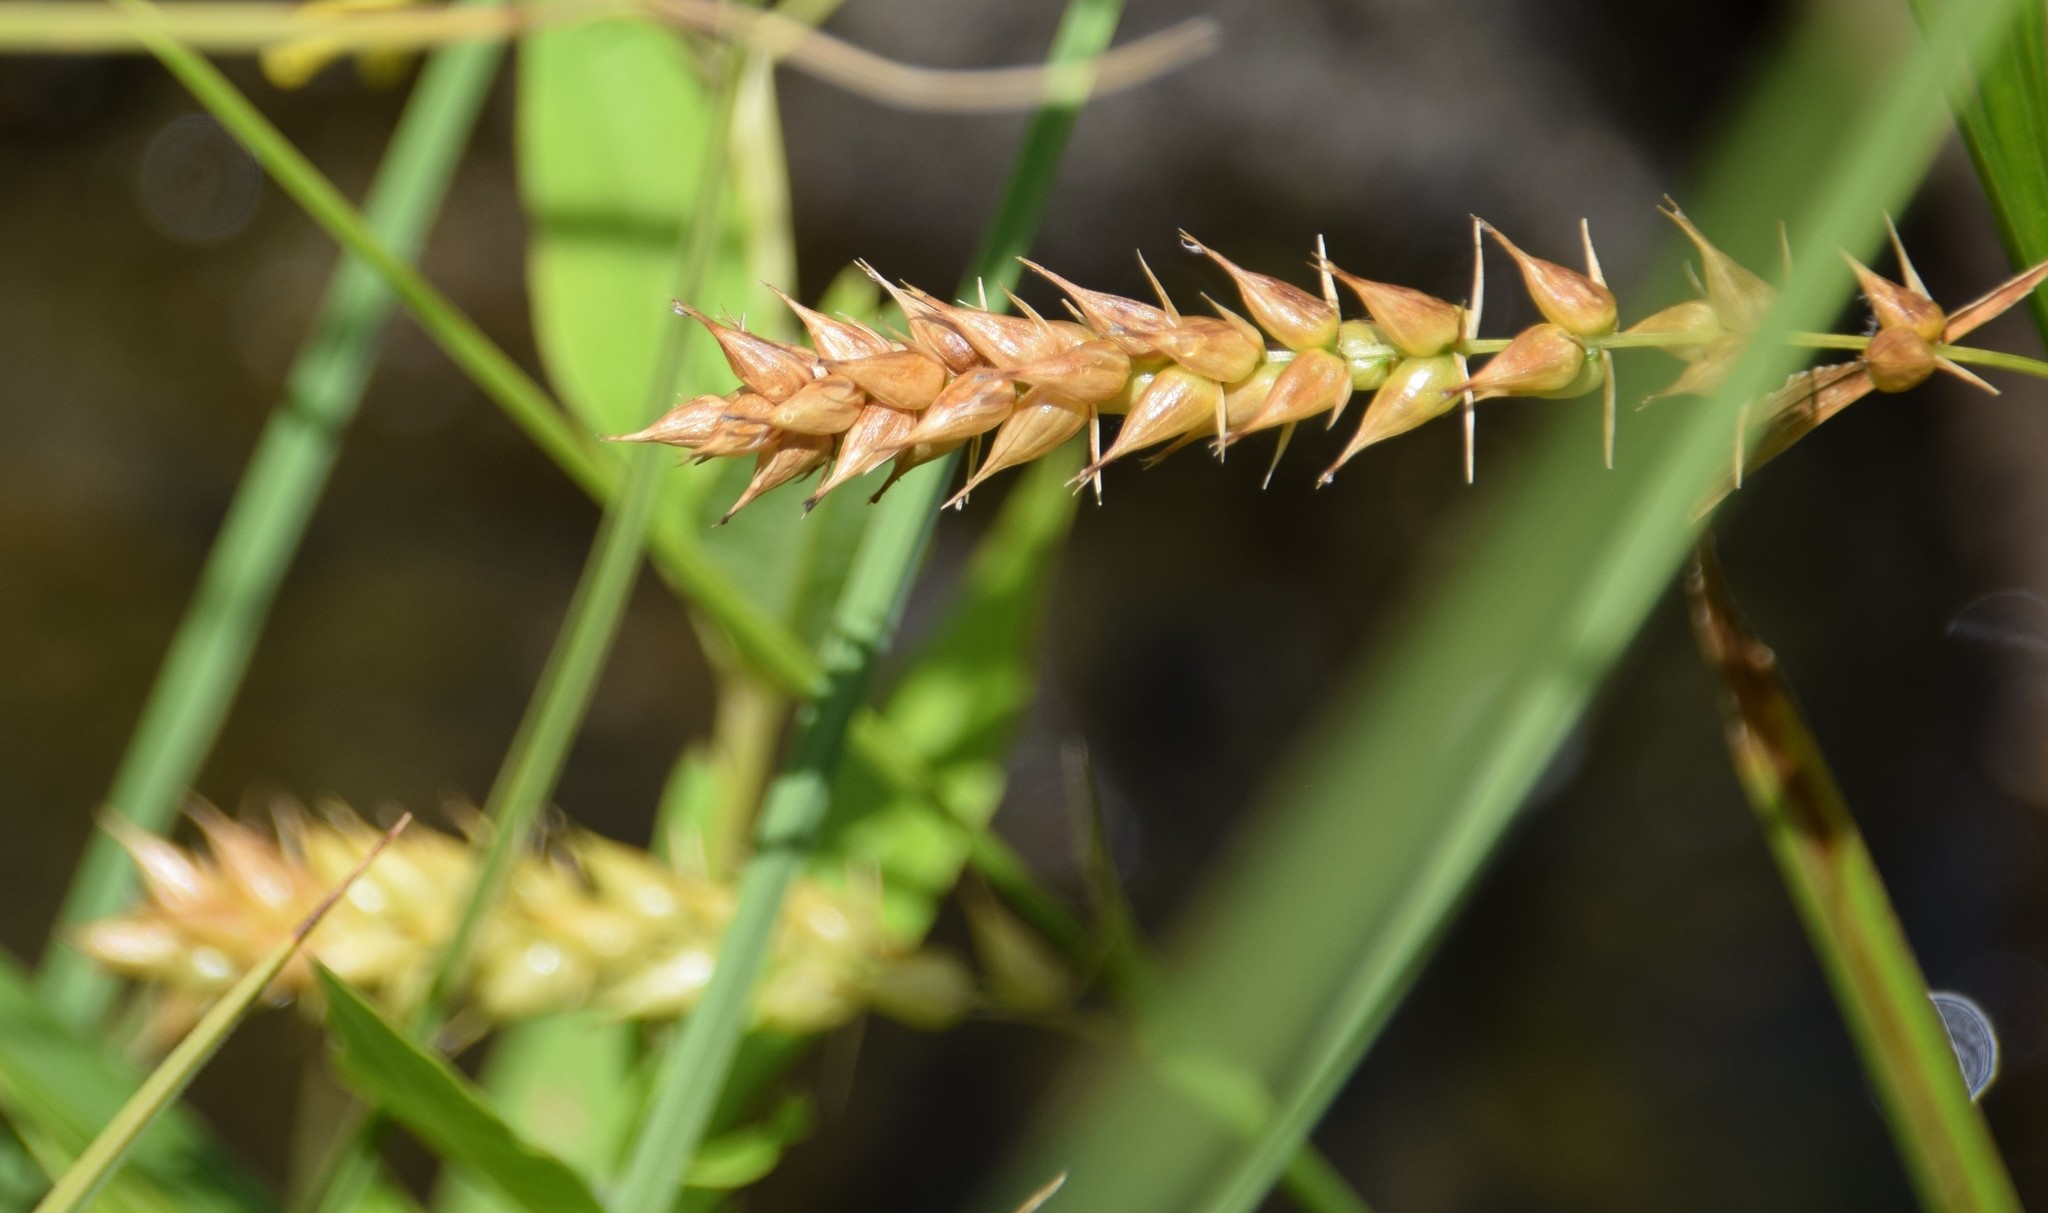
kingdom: Plantae
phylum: Tracheophyta
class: Liliopsida
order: Poales
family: Cyperaceae
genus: Carex
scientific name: Carex vesicaria
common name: Bladder-sedge
